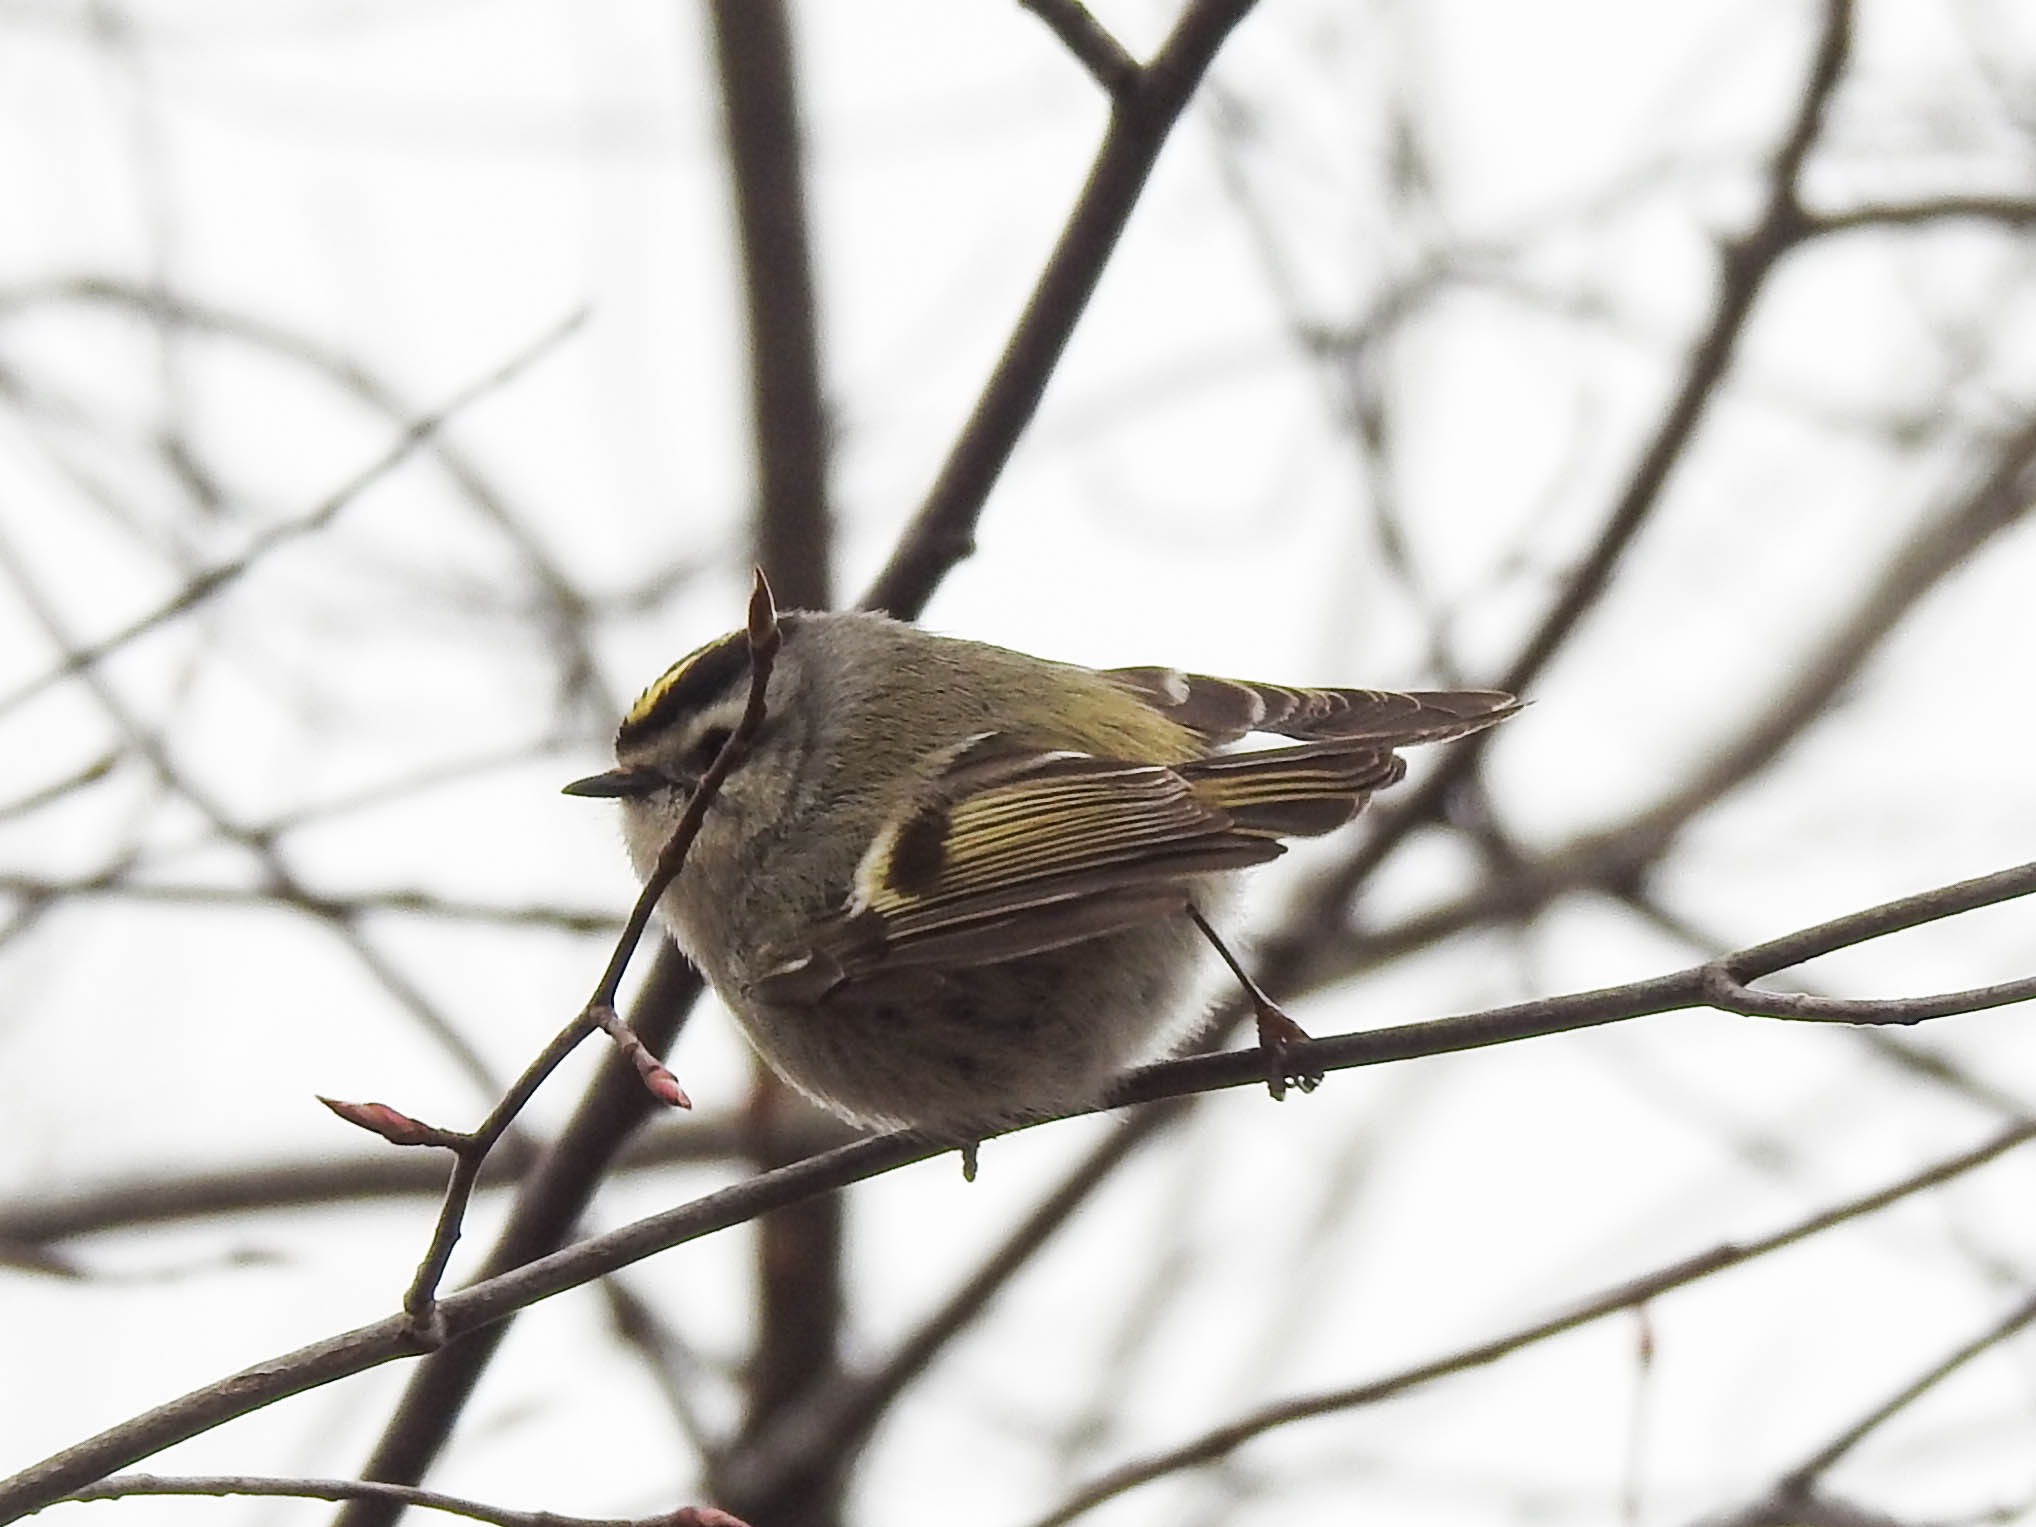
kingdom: Animalia
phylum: Chordata
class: Aves
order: Passeriformes
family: Regulidae
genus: Regulus
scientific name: Regulus satrapa
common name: Golden-crowned kinglet
